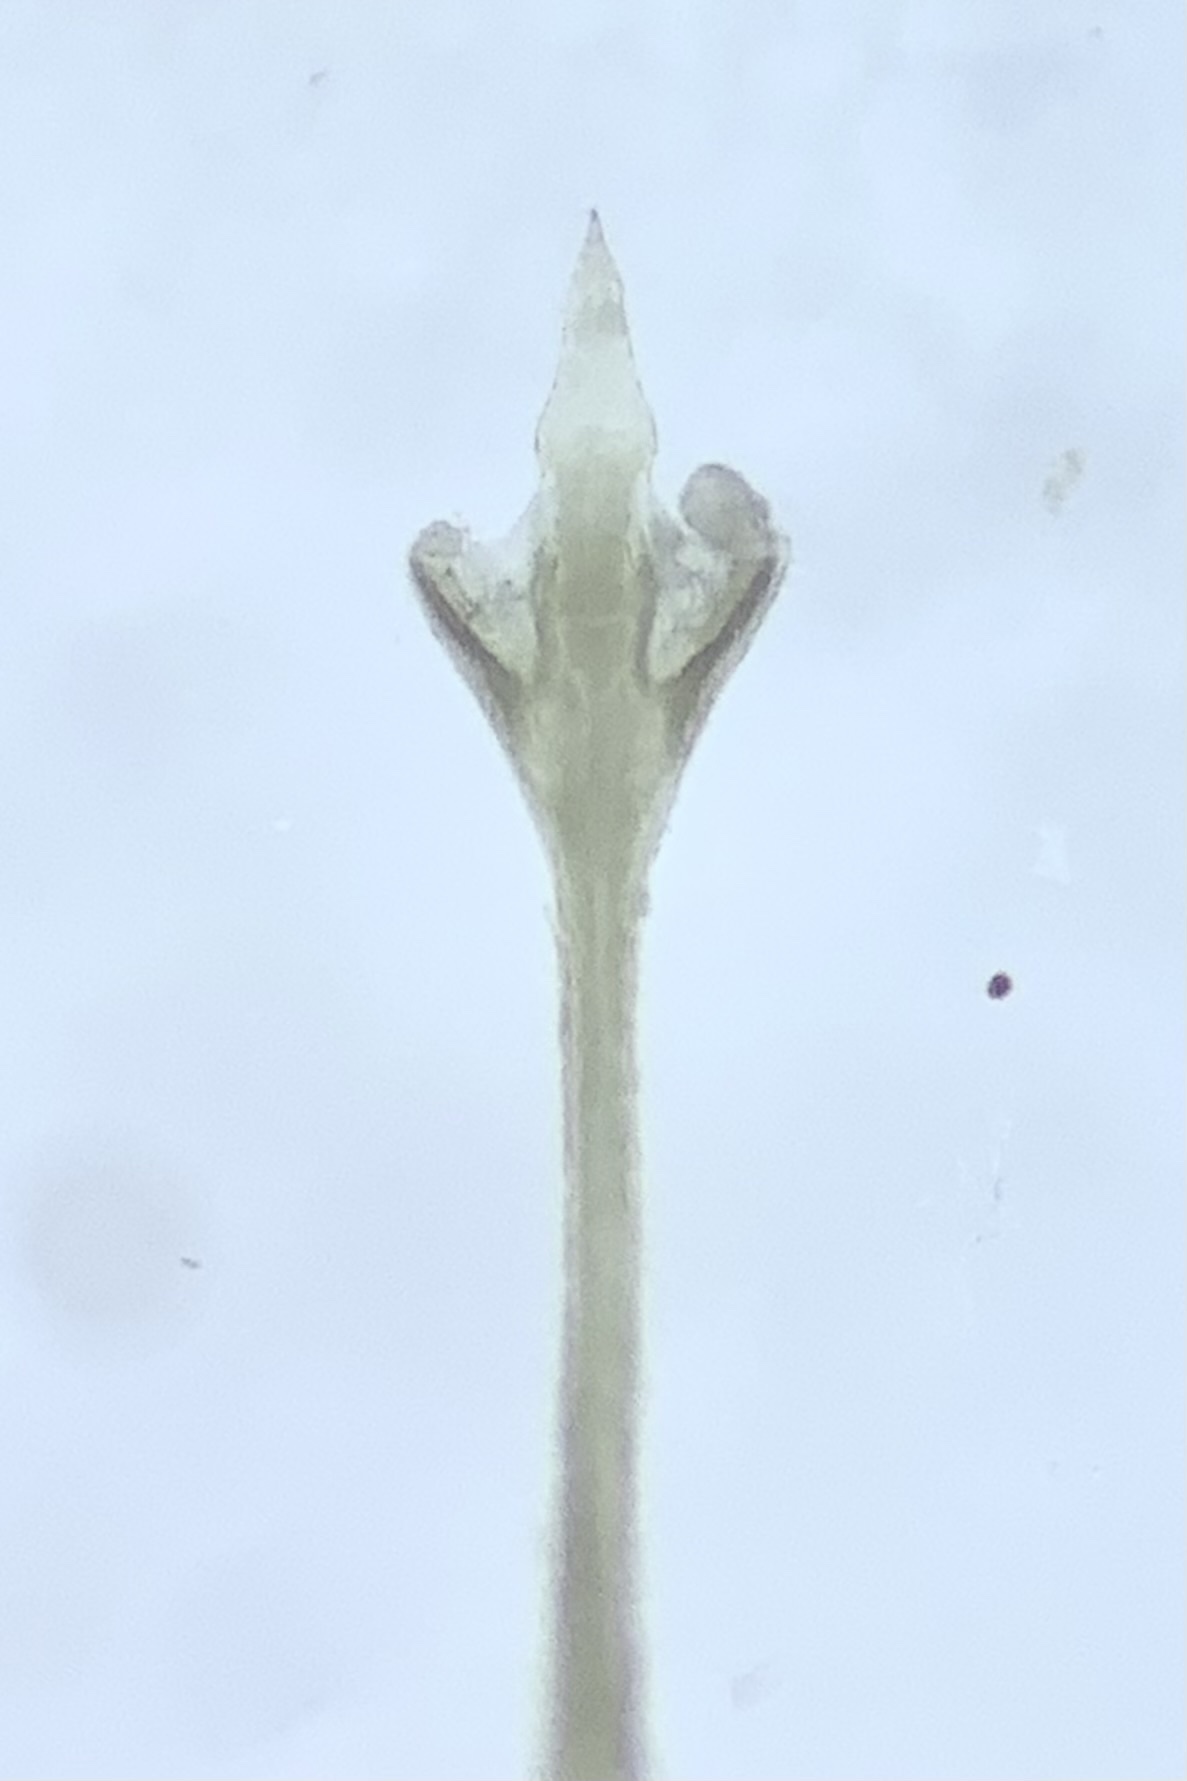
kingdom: Animalia
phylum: Arthropoda
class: Arachnida
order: Opiliones
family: Sclerosomatidae
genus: Nelima
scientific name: Nelima doriae
